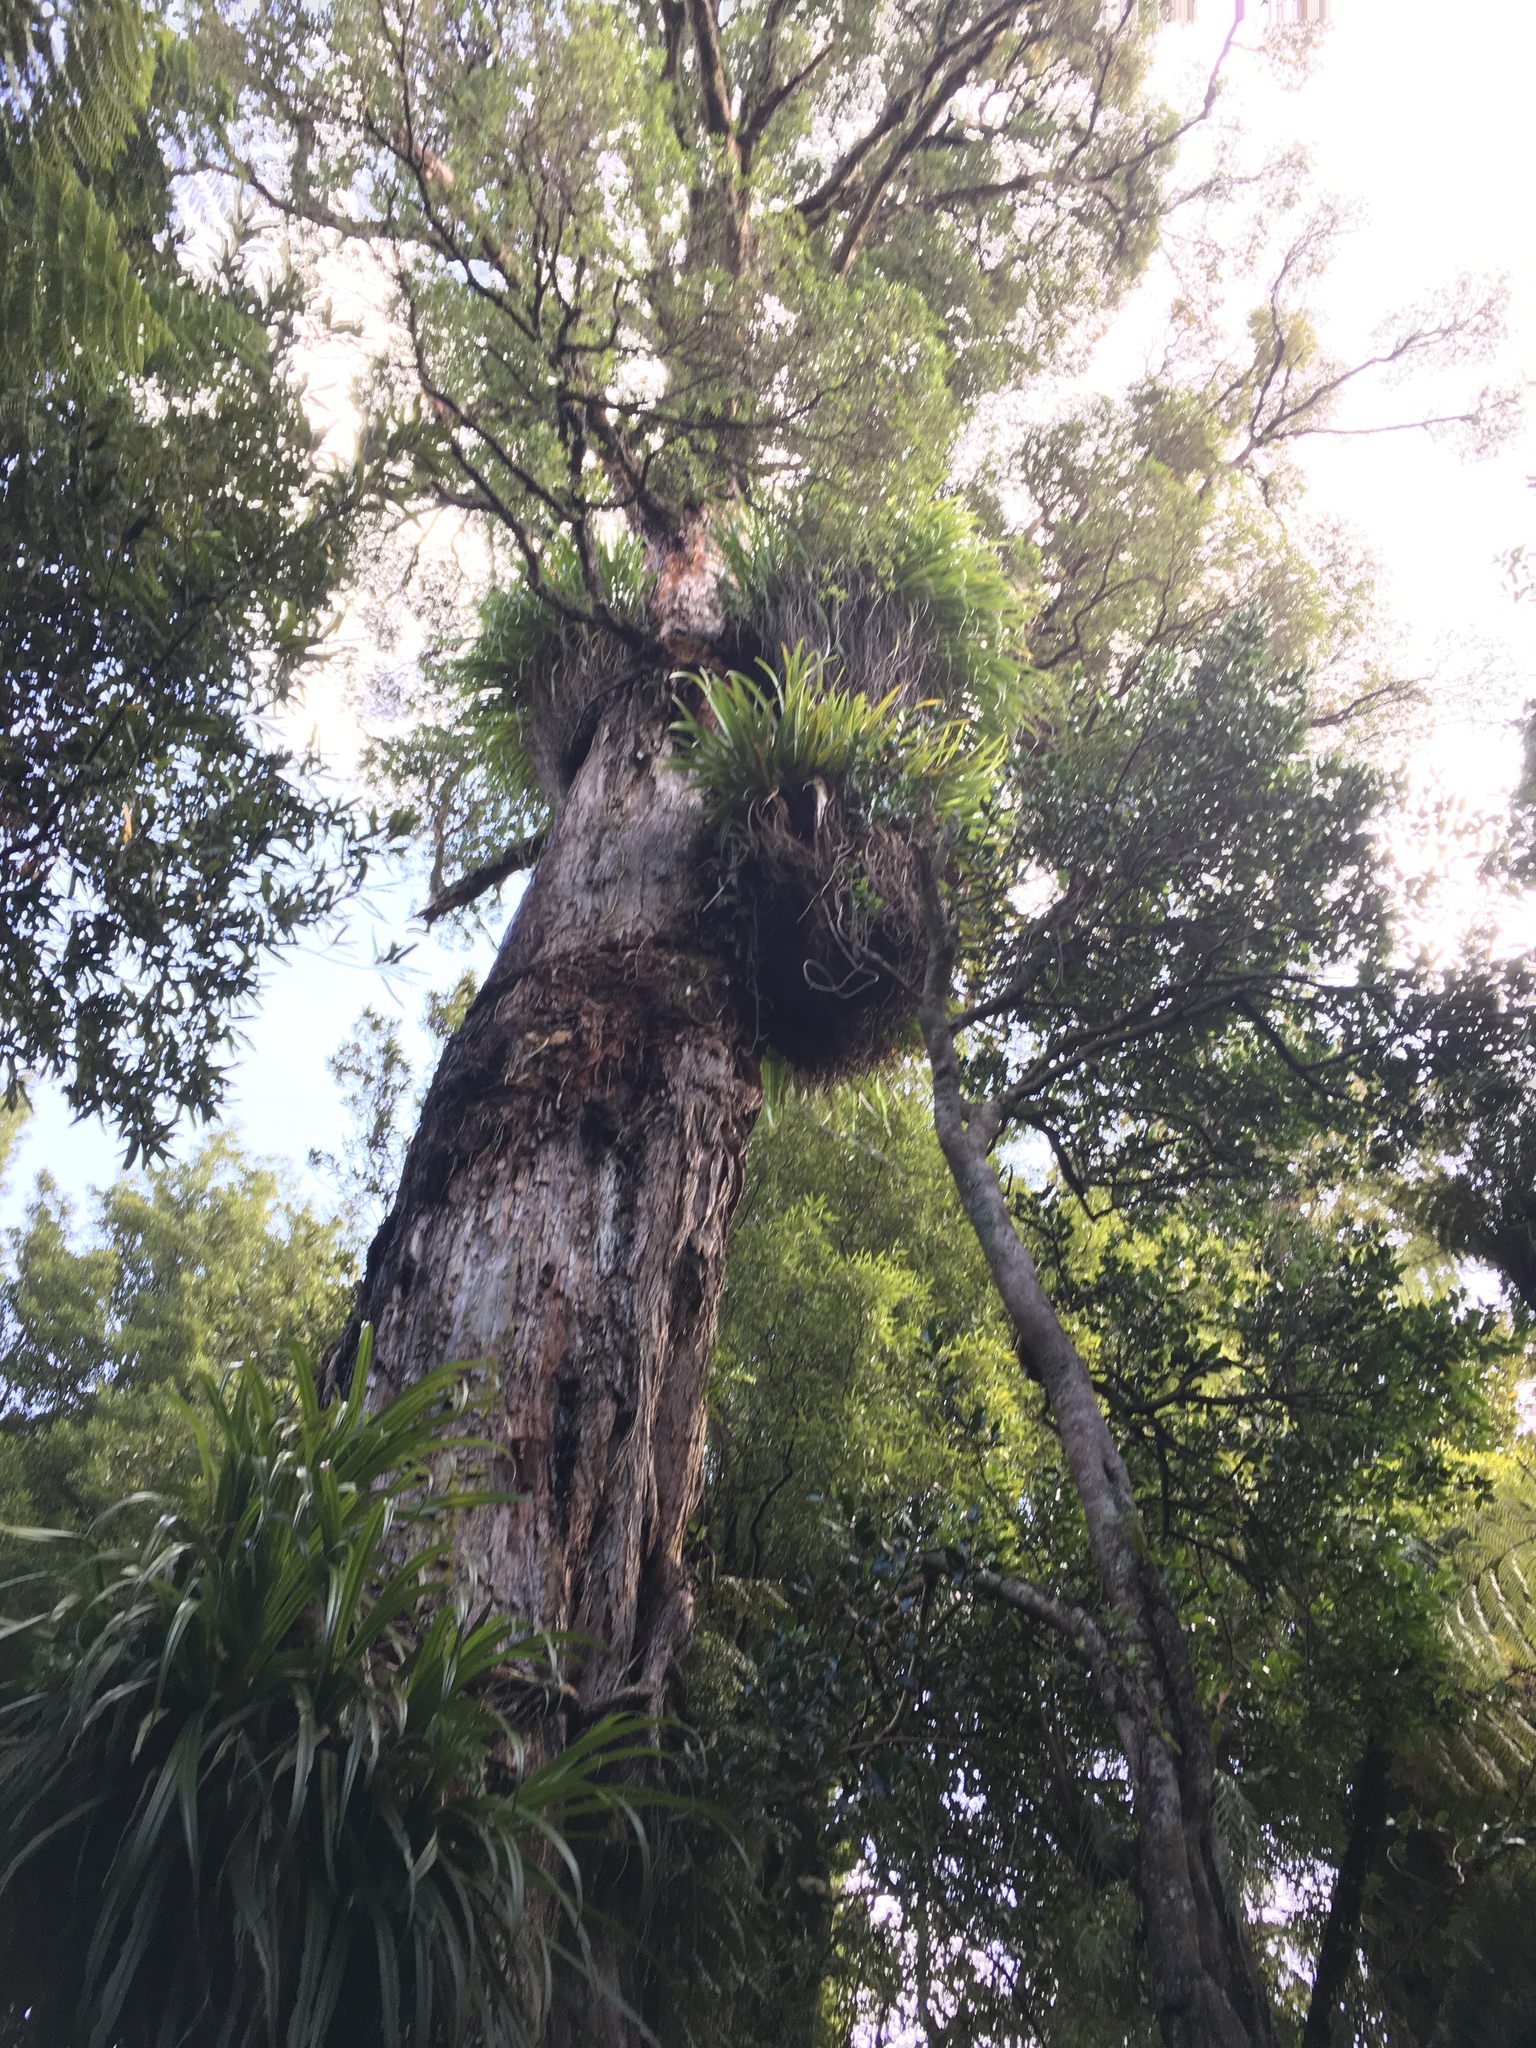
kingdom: Plantae
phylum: Tracheophyta
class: Liliopsida
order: Asparagales
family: Asteliaceae
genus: Astelia
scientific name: Astelia hastata
